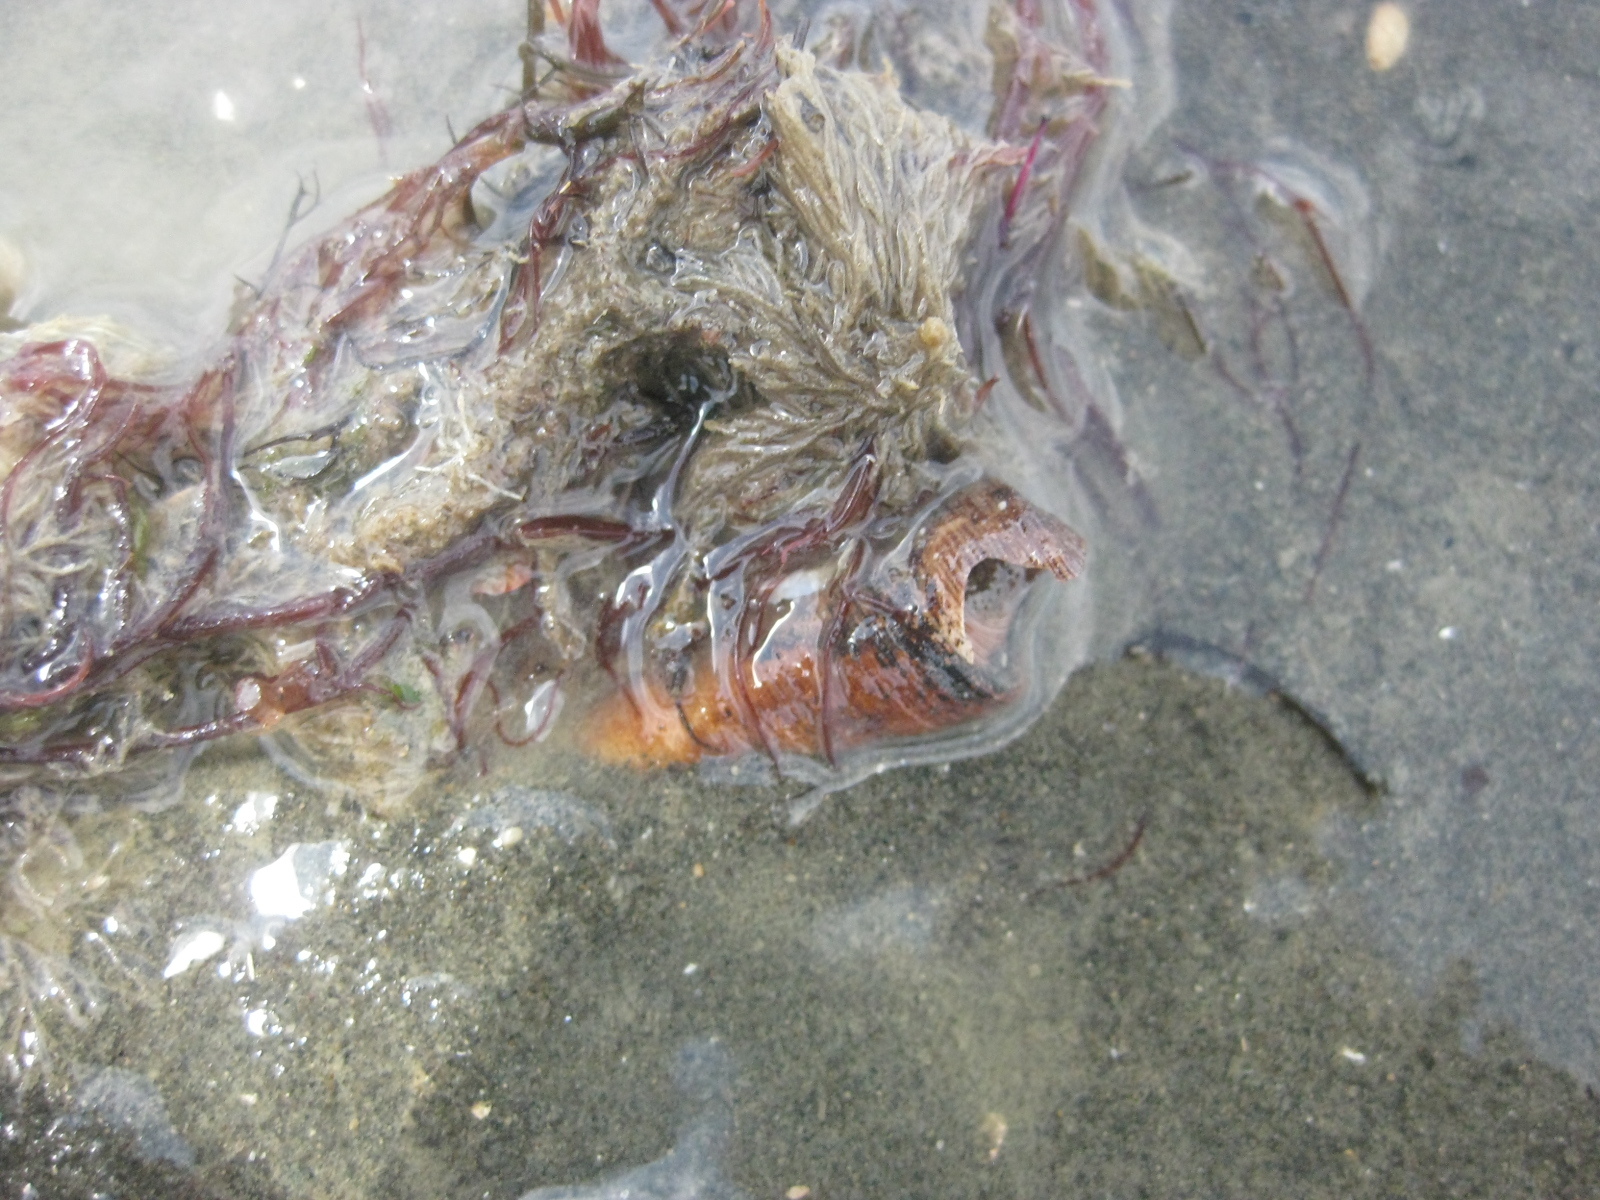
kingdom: Animalia
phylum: Mollusca
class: Gastropoda
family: Turritellidae
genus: Maoricolpus
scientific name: Maoricolpus roseus
